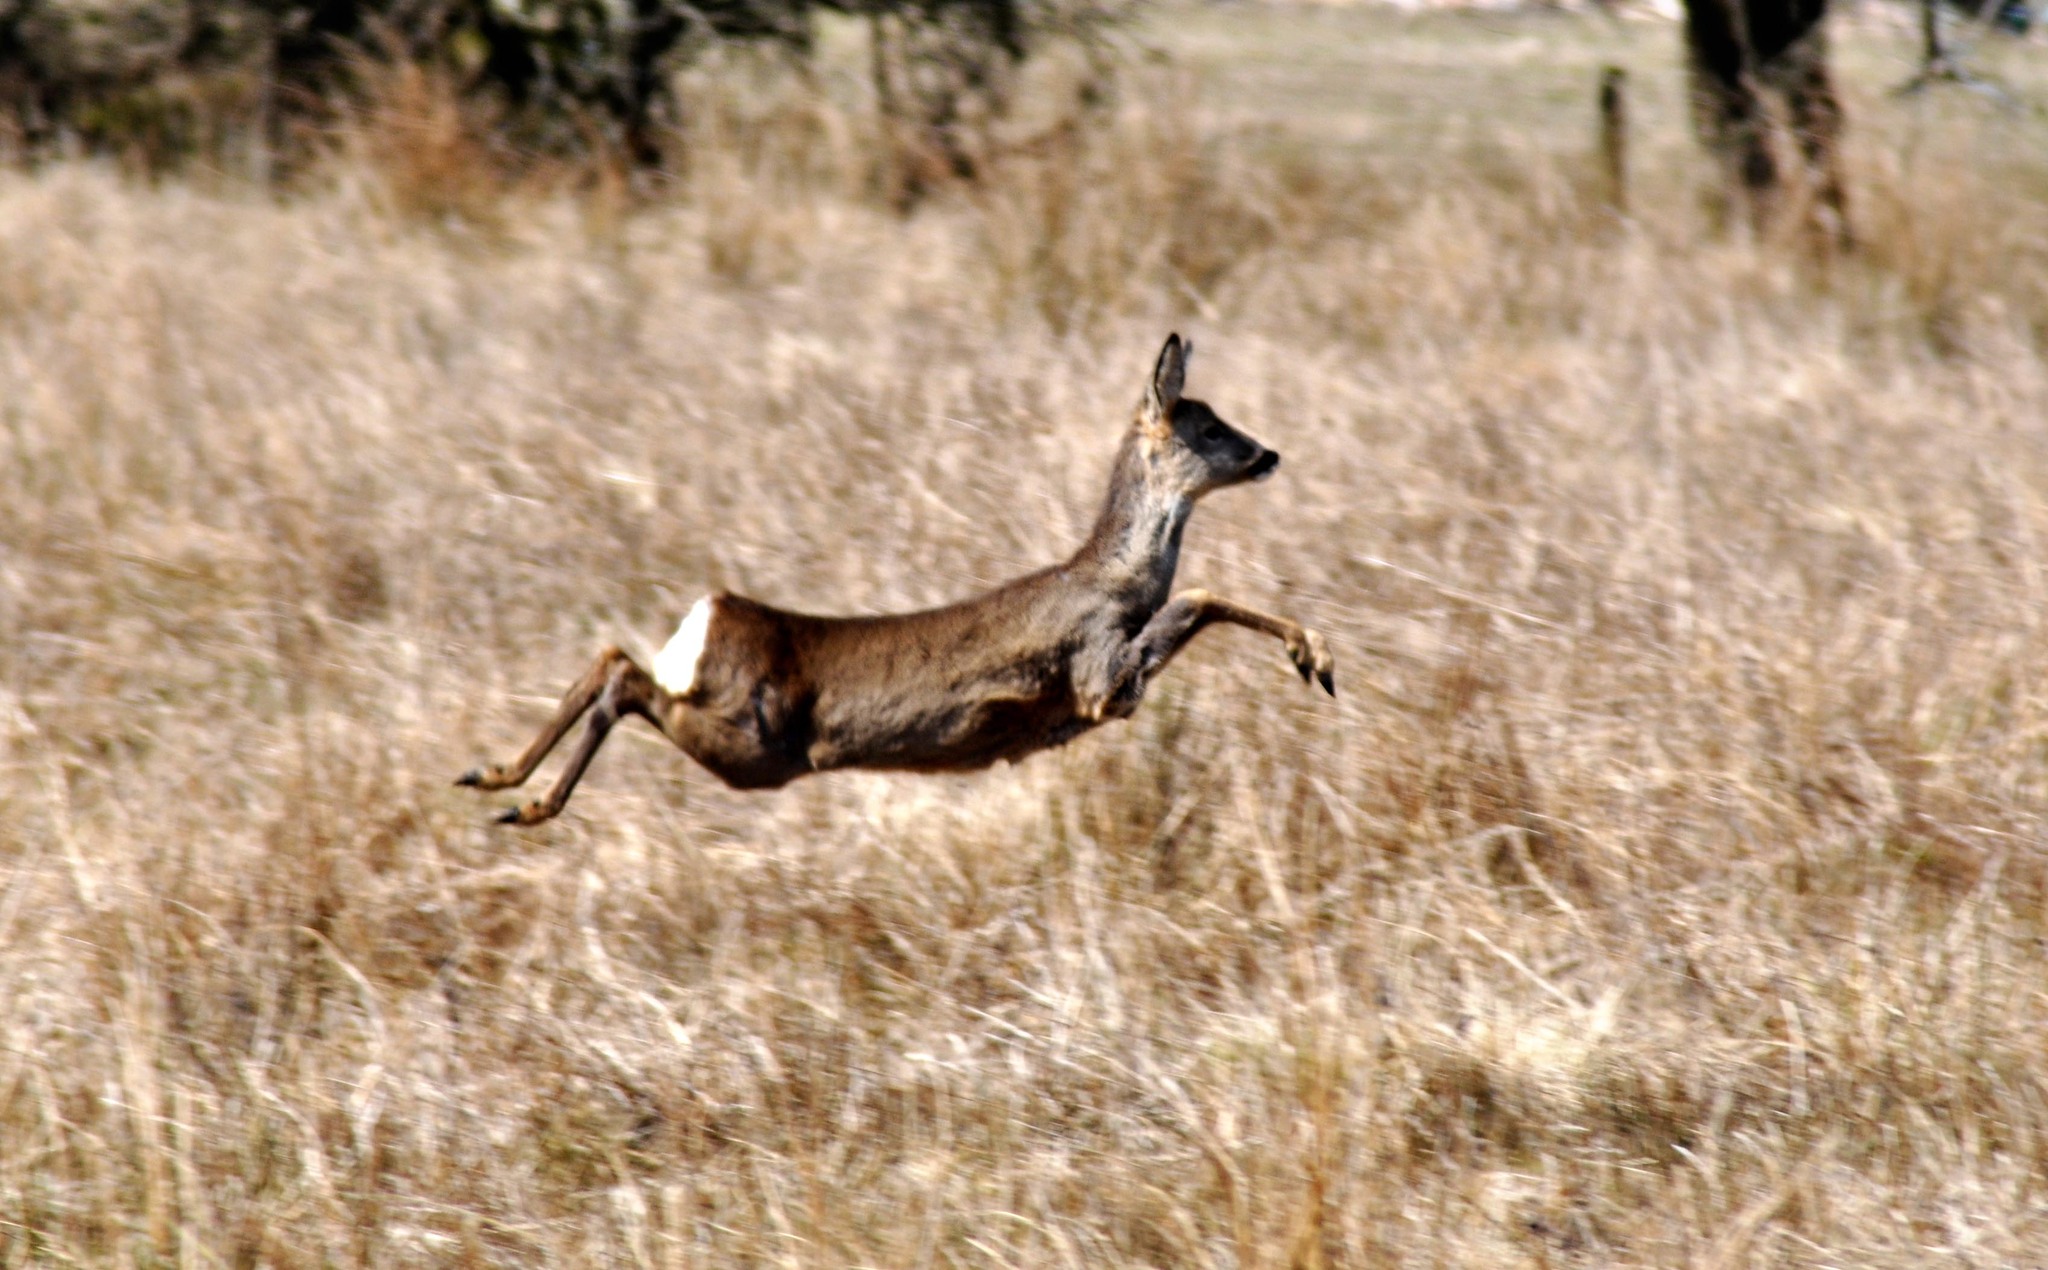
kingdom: Animalia
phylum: Chordata
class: Mammalia
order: Artiodactyla
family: Cervidae
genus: Capreolus
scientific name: Capreolus capreolus
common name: Western roe deer
